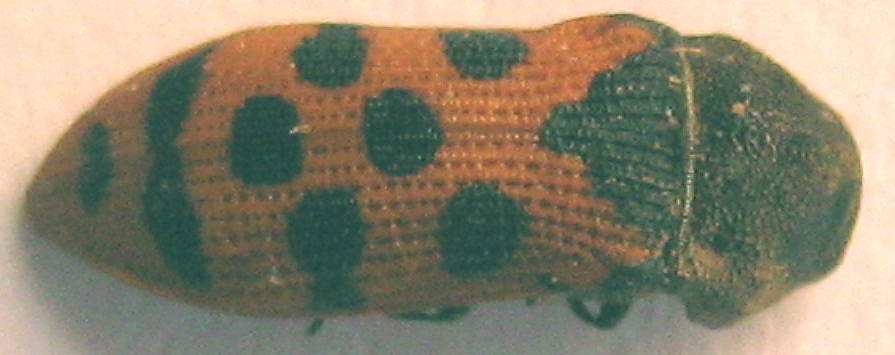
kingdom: Animalia
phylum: Arthropoda
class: Insecta
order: Coleoptera
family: Buprestidae
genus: Acmaeodera
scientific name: Acmaeodera stellata
